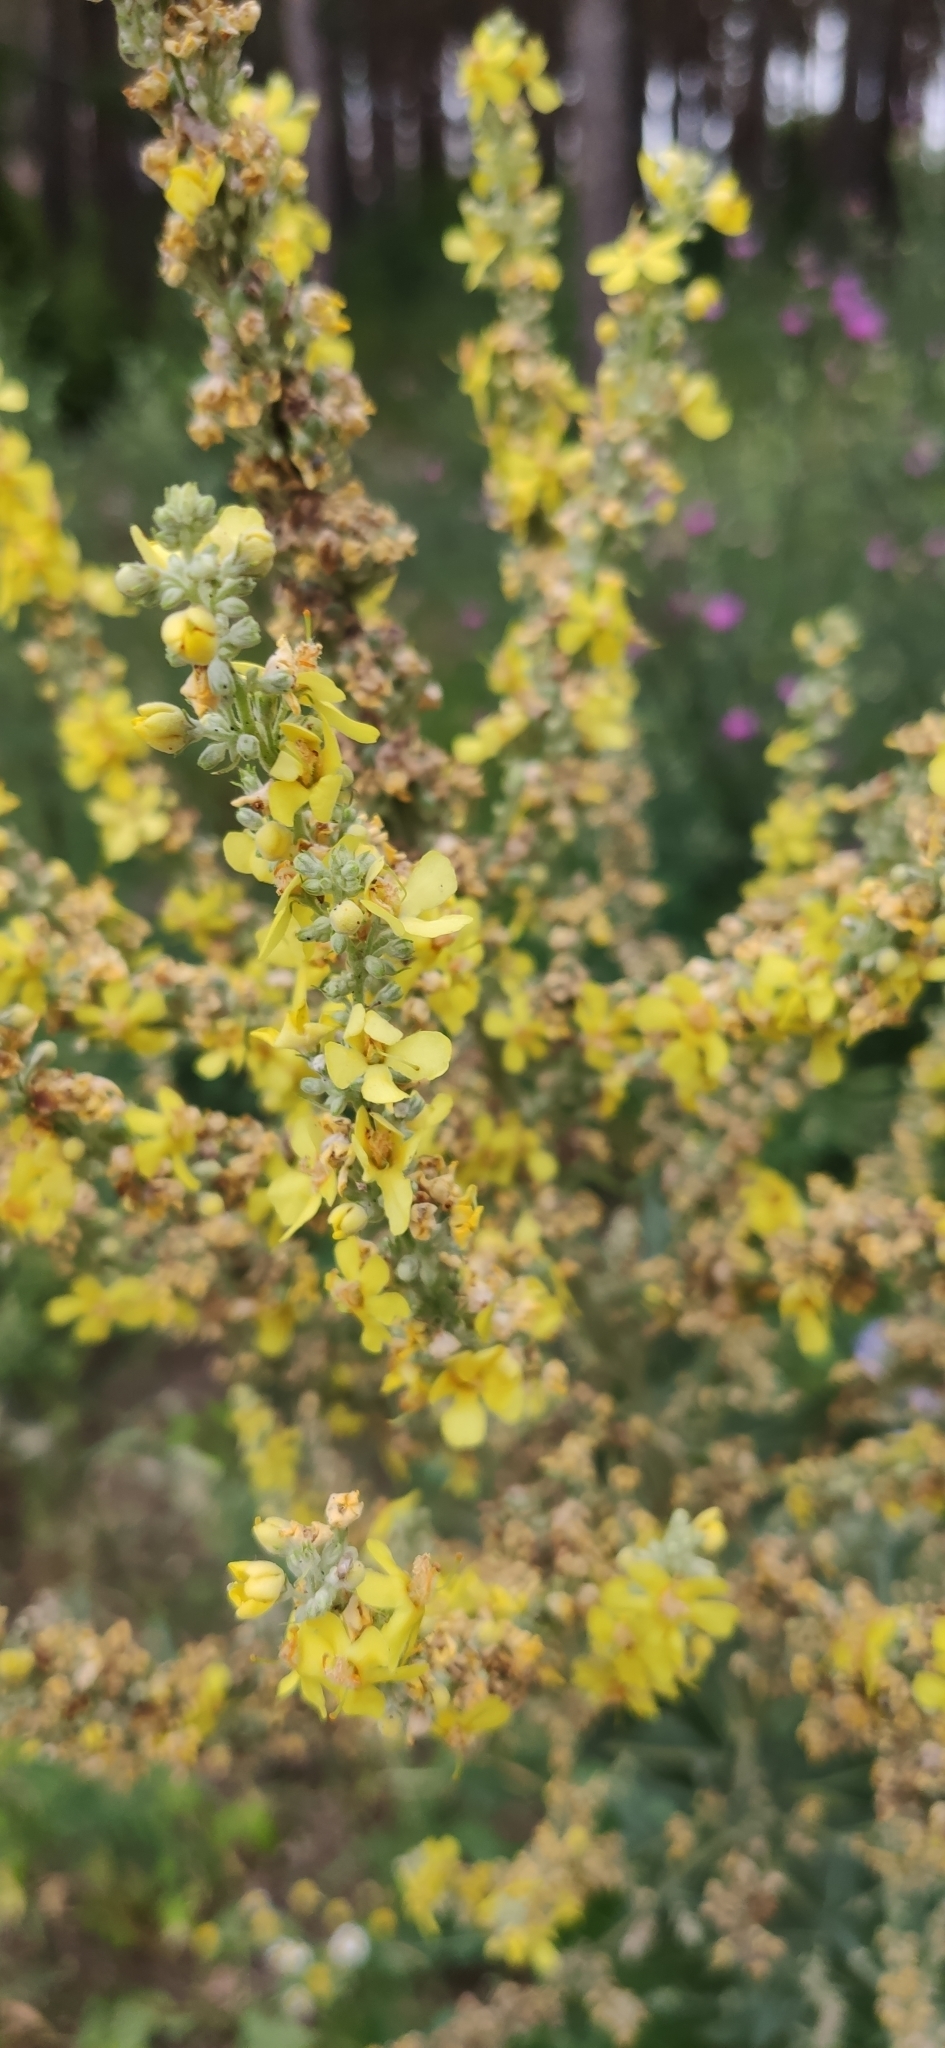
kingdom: Plantae
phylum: Tracheophyta
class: Magnoliopsida
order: Lamiales
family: Scrophulariaceae
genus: Verbascum
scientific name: Verbascum lychnitis
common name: White mullein
